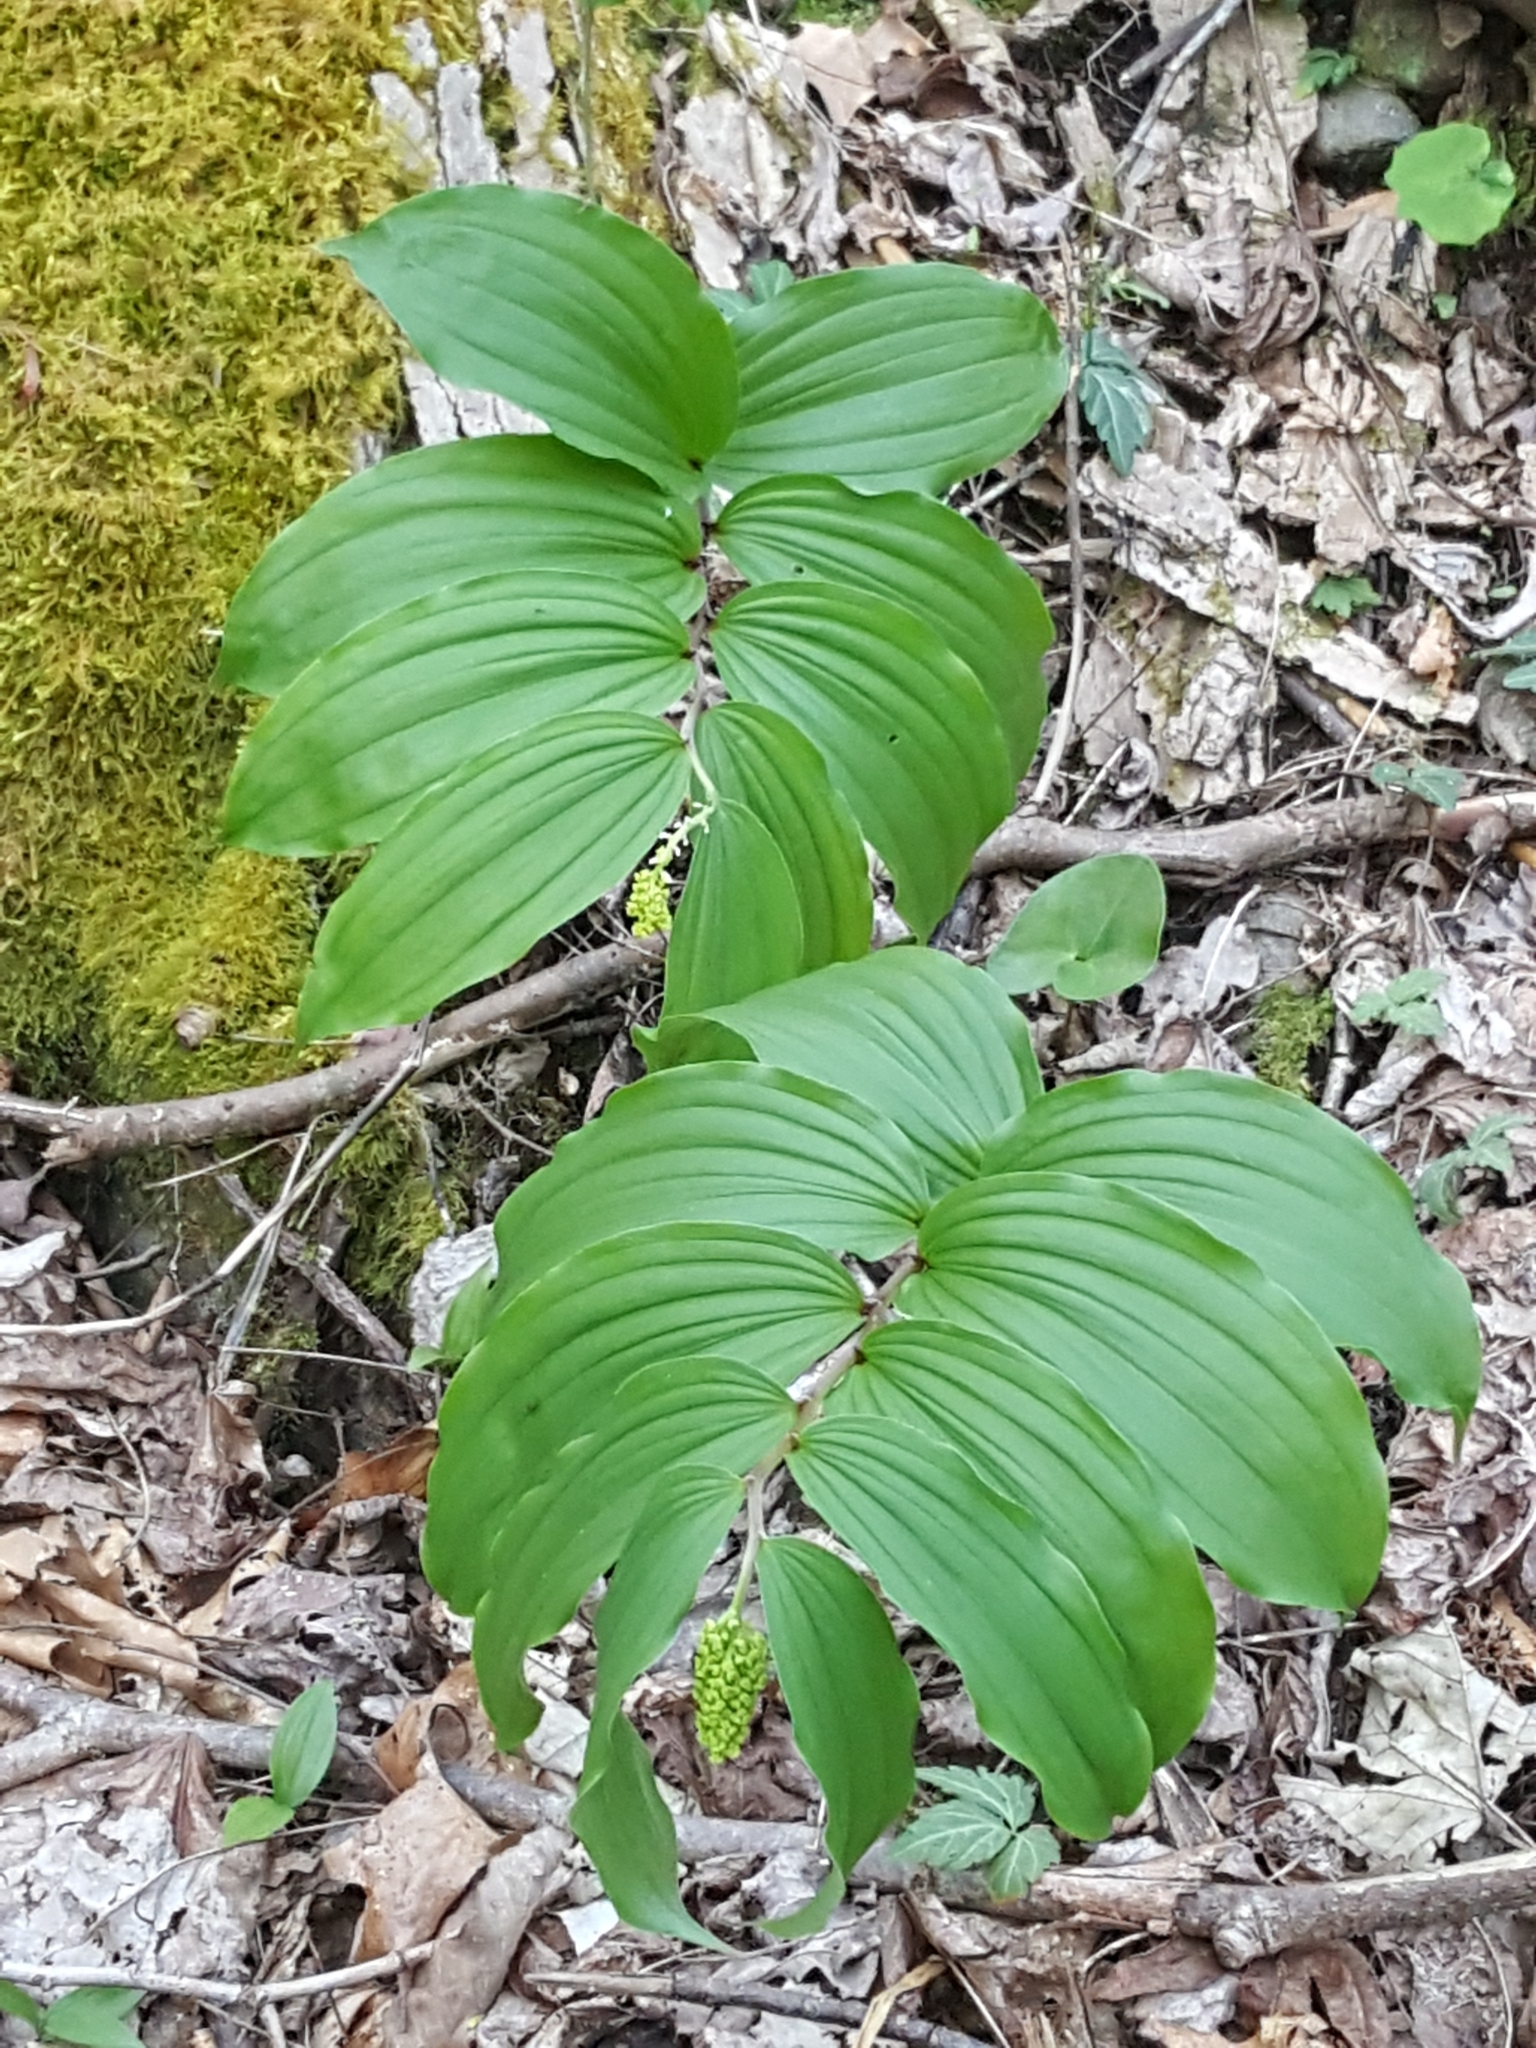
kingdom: Plantae
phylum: Tracheophyta
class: Liliopsida
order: Asparagales
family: Asparagaceae
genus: Maianthemum
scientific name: Maianthemum racemosum
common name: False spikenard
